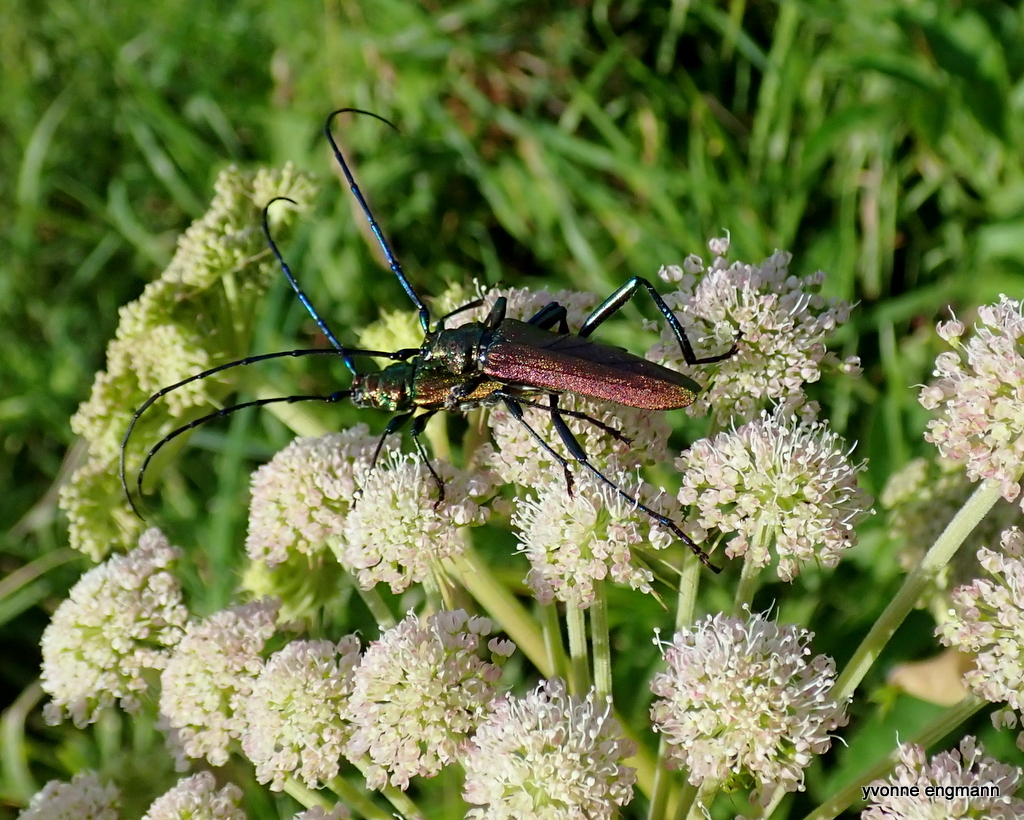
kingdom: Animalia
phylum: Arthropoda
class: Insecta
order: Coleoptera
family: Cerambycidae
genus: Aromia
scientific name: Aromia moschata
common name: Musk beetle
